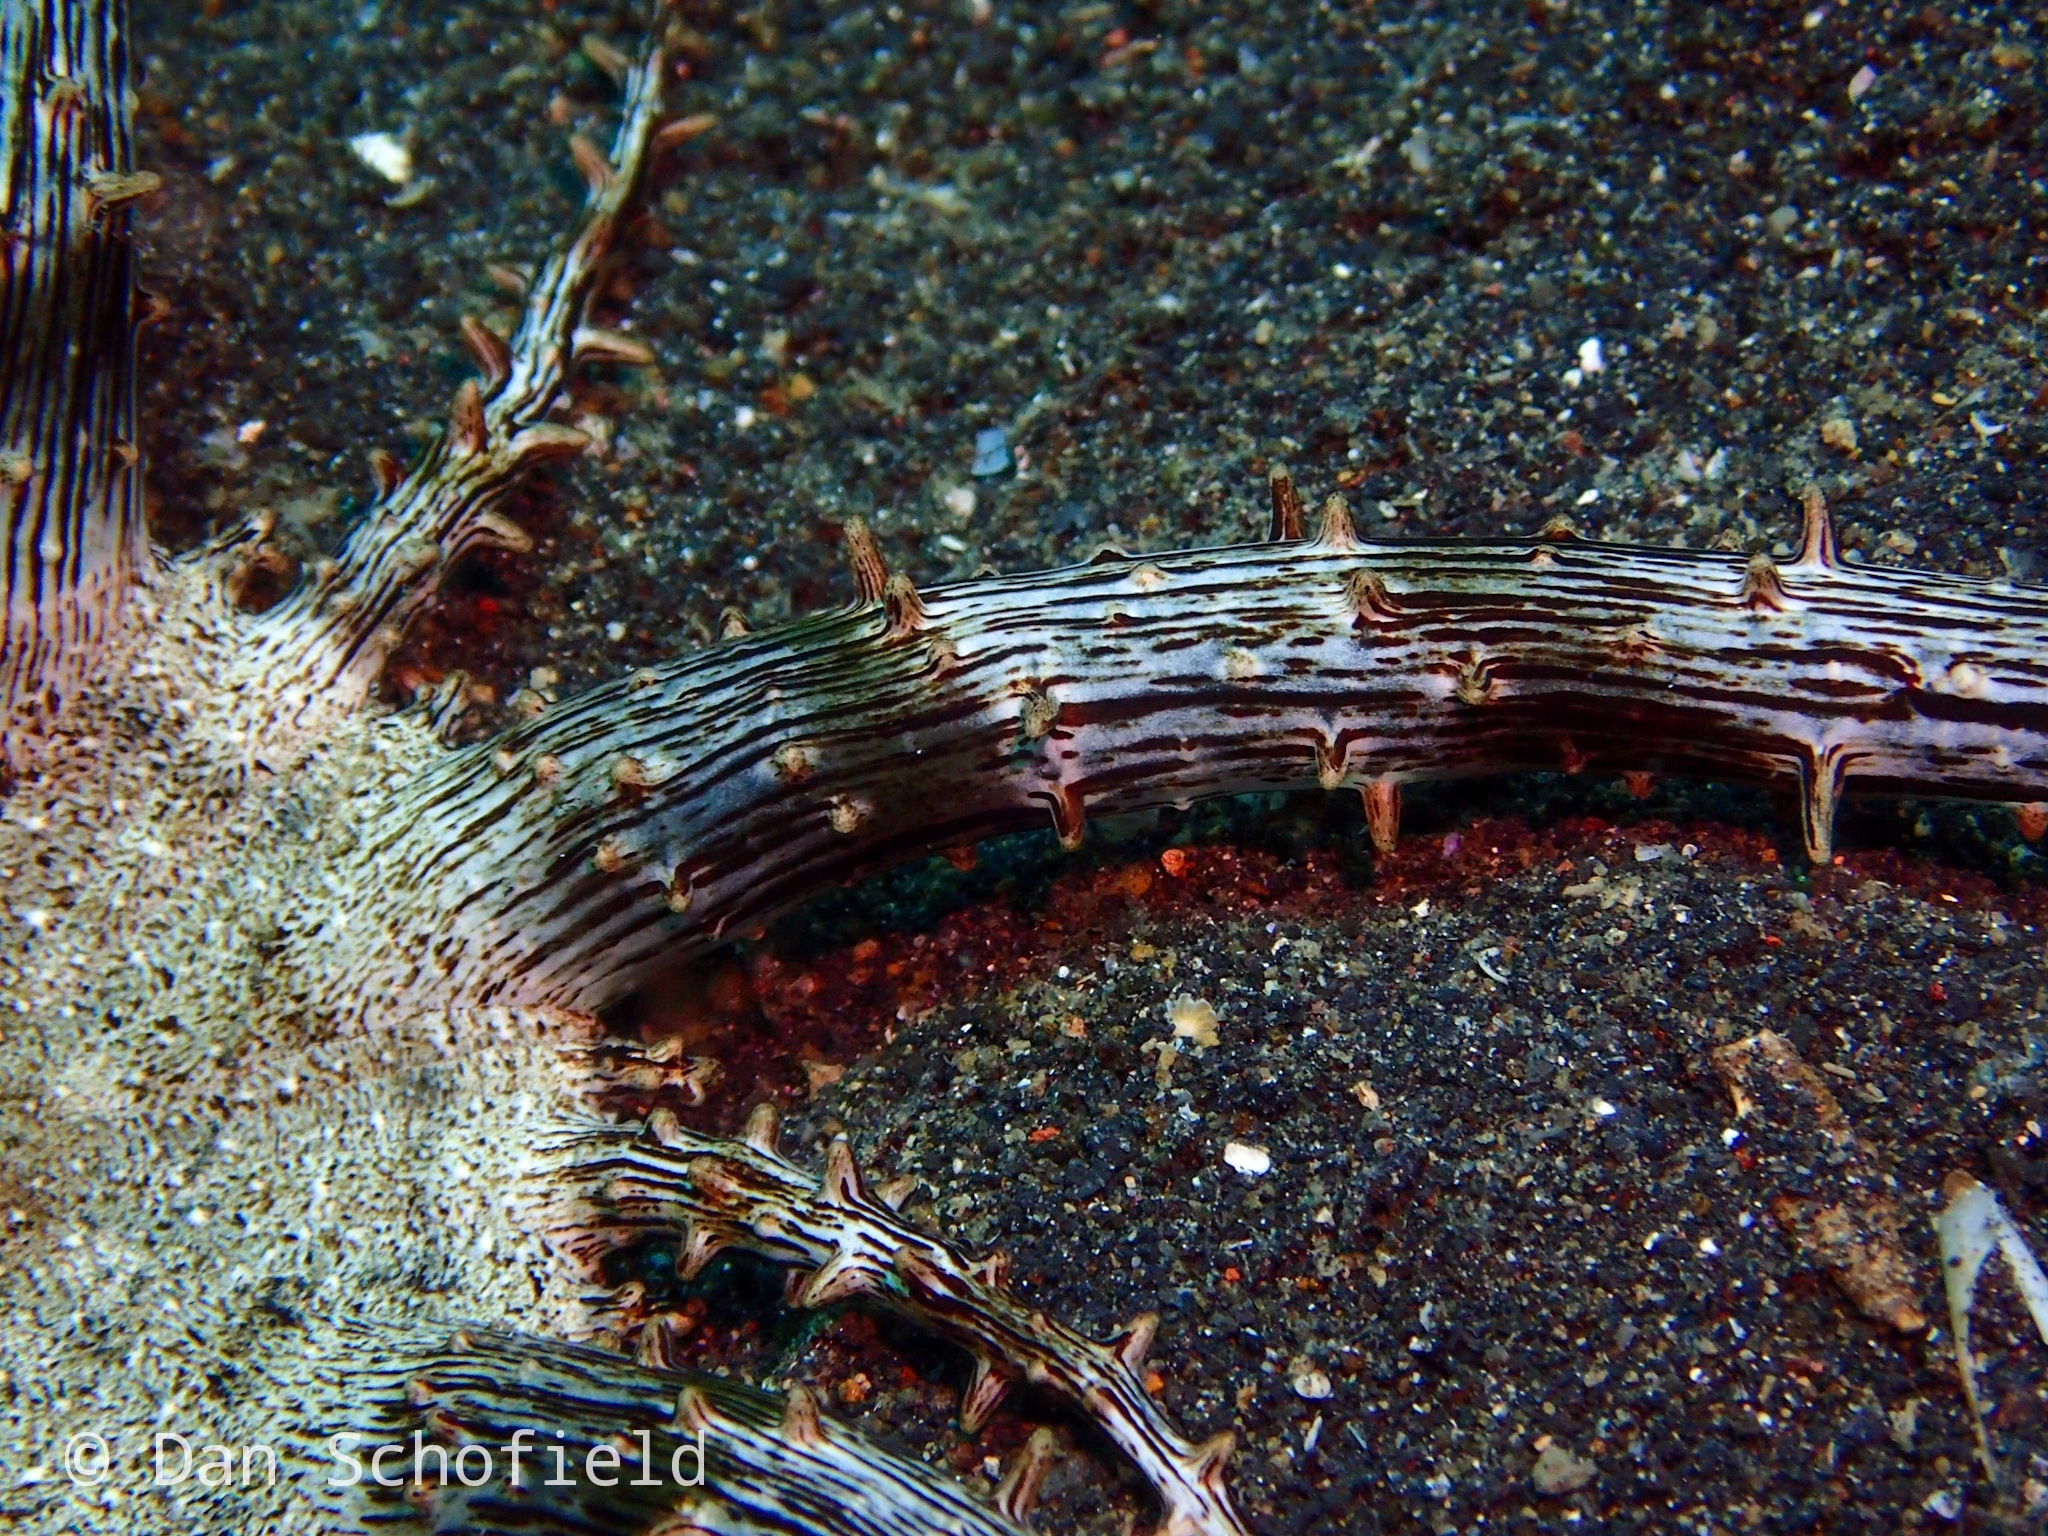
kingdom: Animalia
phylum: Cnidaria
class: Anthozoa
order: Actiniaria
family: Actinodendridae
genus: Actinostephanus
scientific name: Actinostephanus haeckeli
